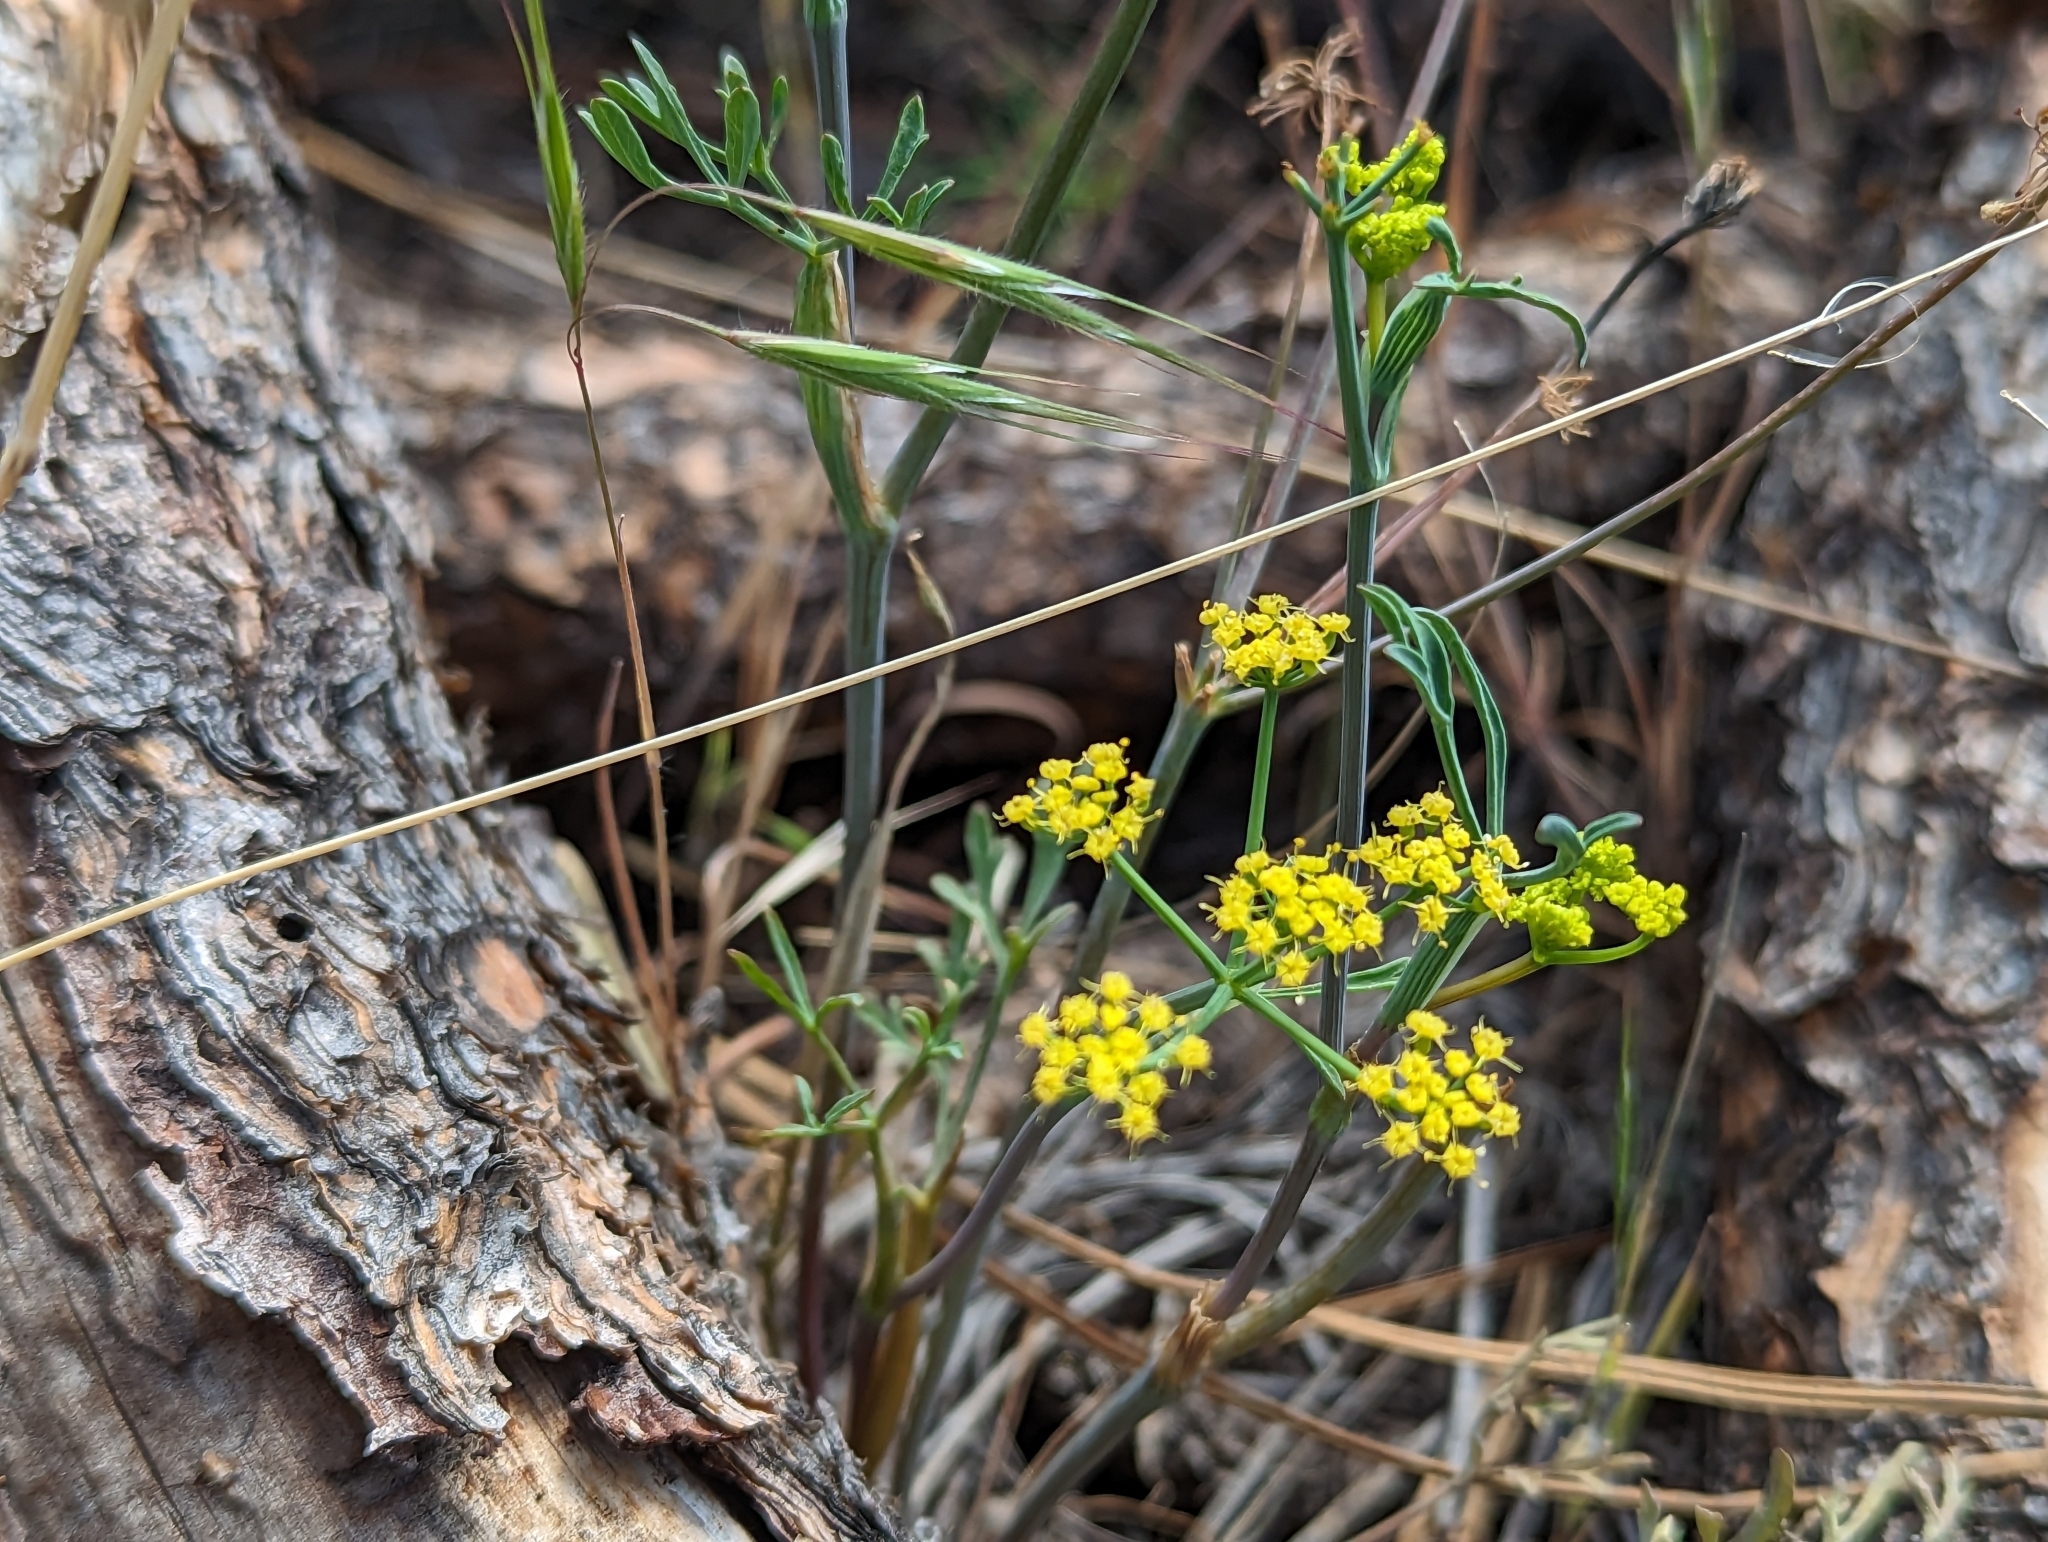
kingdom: Plantae
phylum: Tracheophyta
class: Magnoliopsida
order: Apiales
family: Apiaceae
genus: Lomatium
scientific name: Lomatium ambiguum
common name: Lacy lomatium
